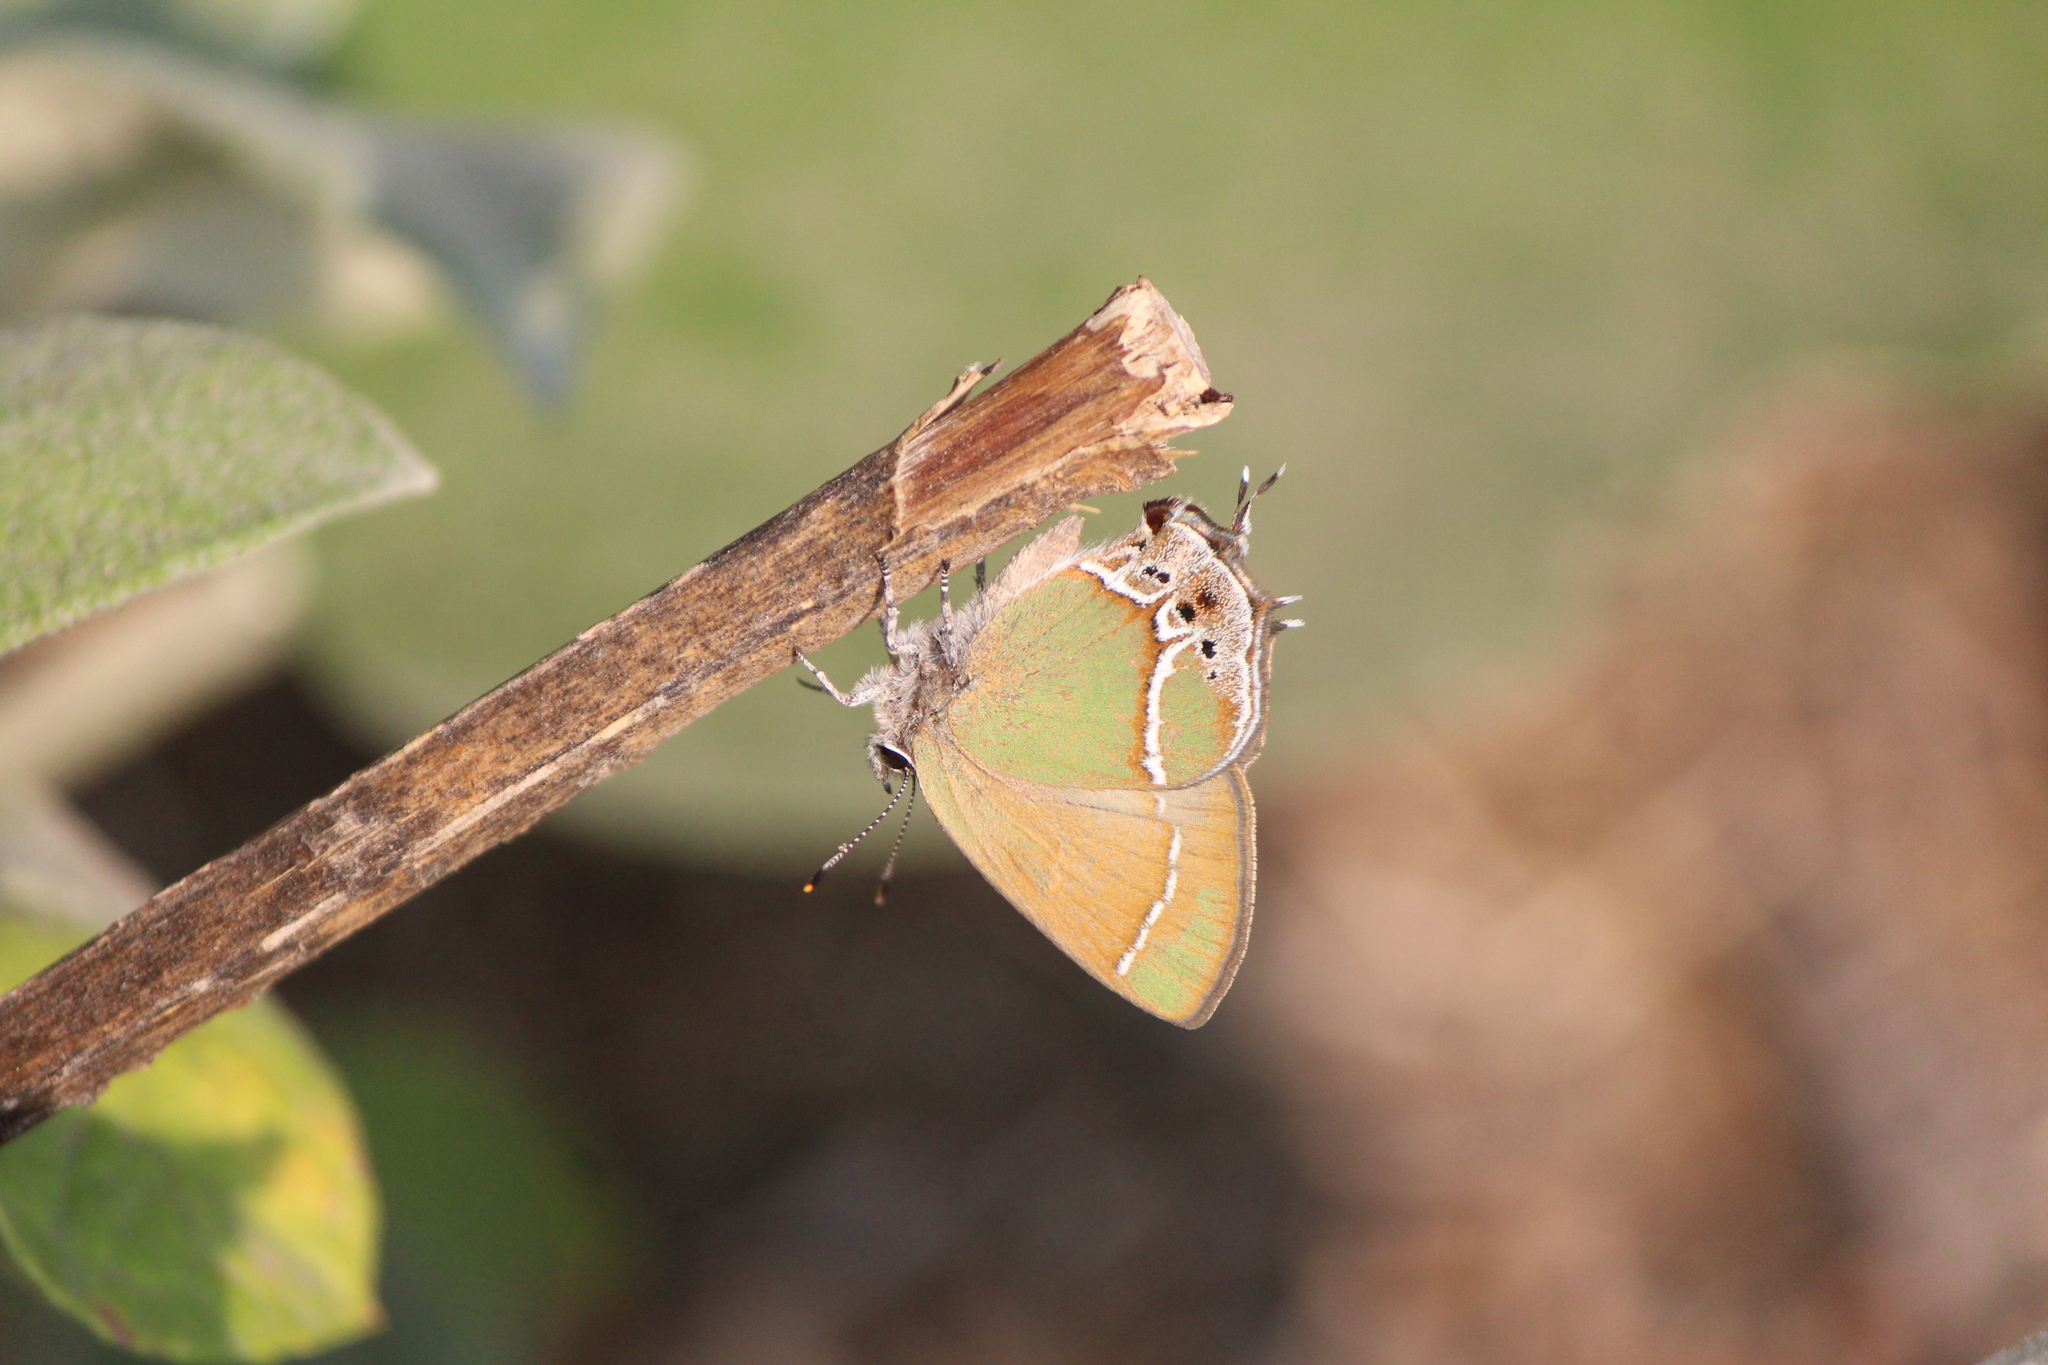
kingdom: Animalia
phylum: Arthropoda
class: Insecta
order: Lepidoptera
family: Lycaenidae
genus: Xamia
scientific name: Xamia xami
